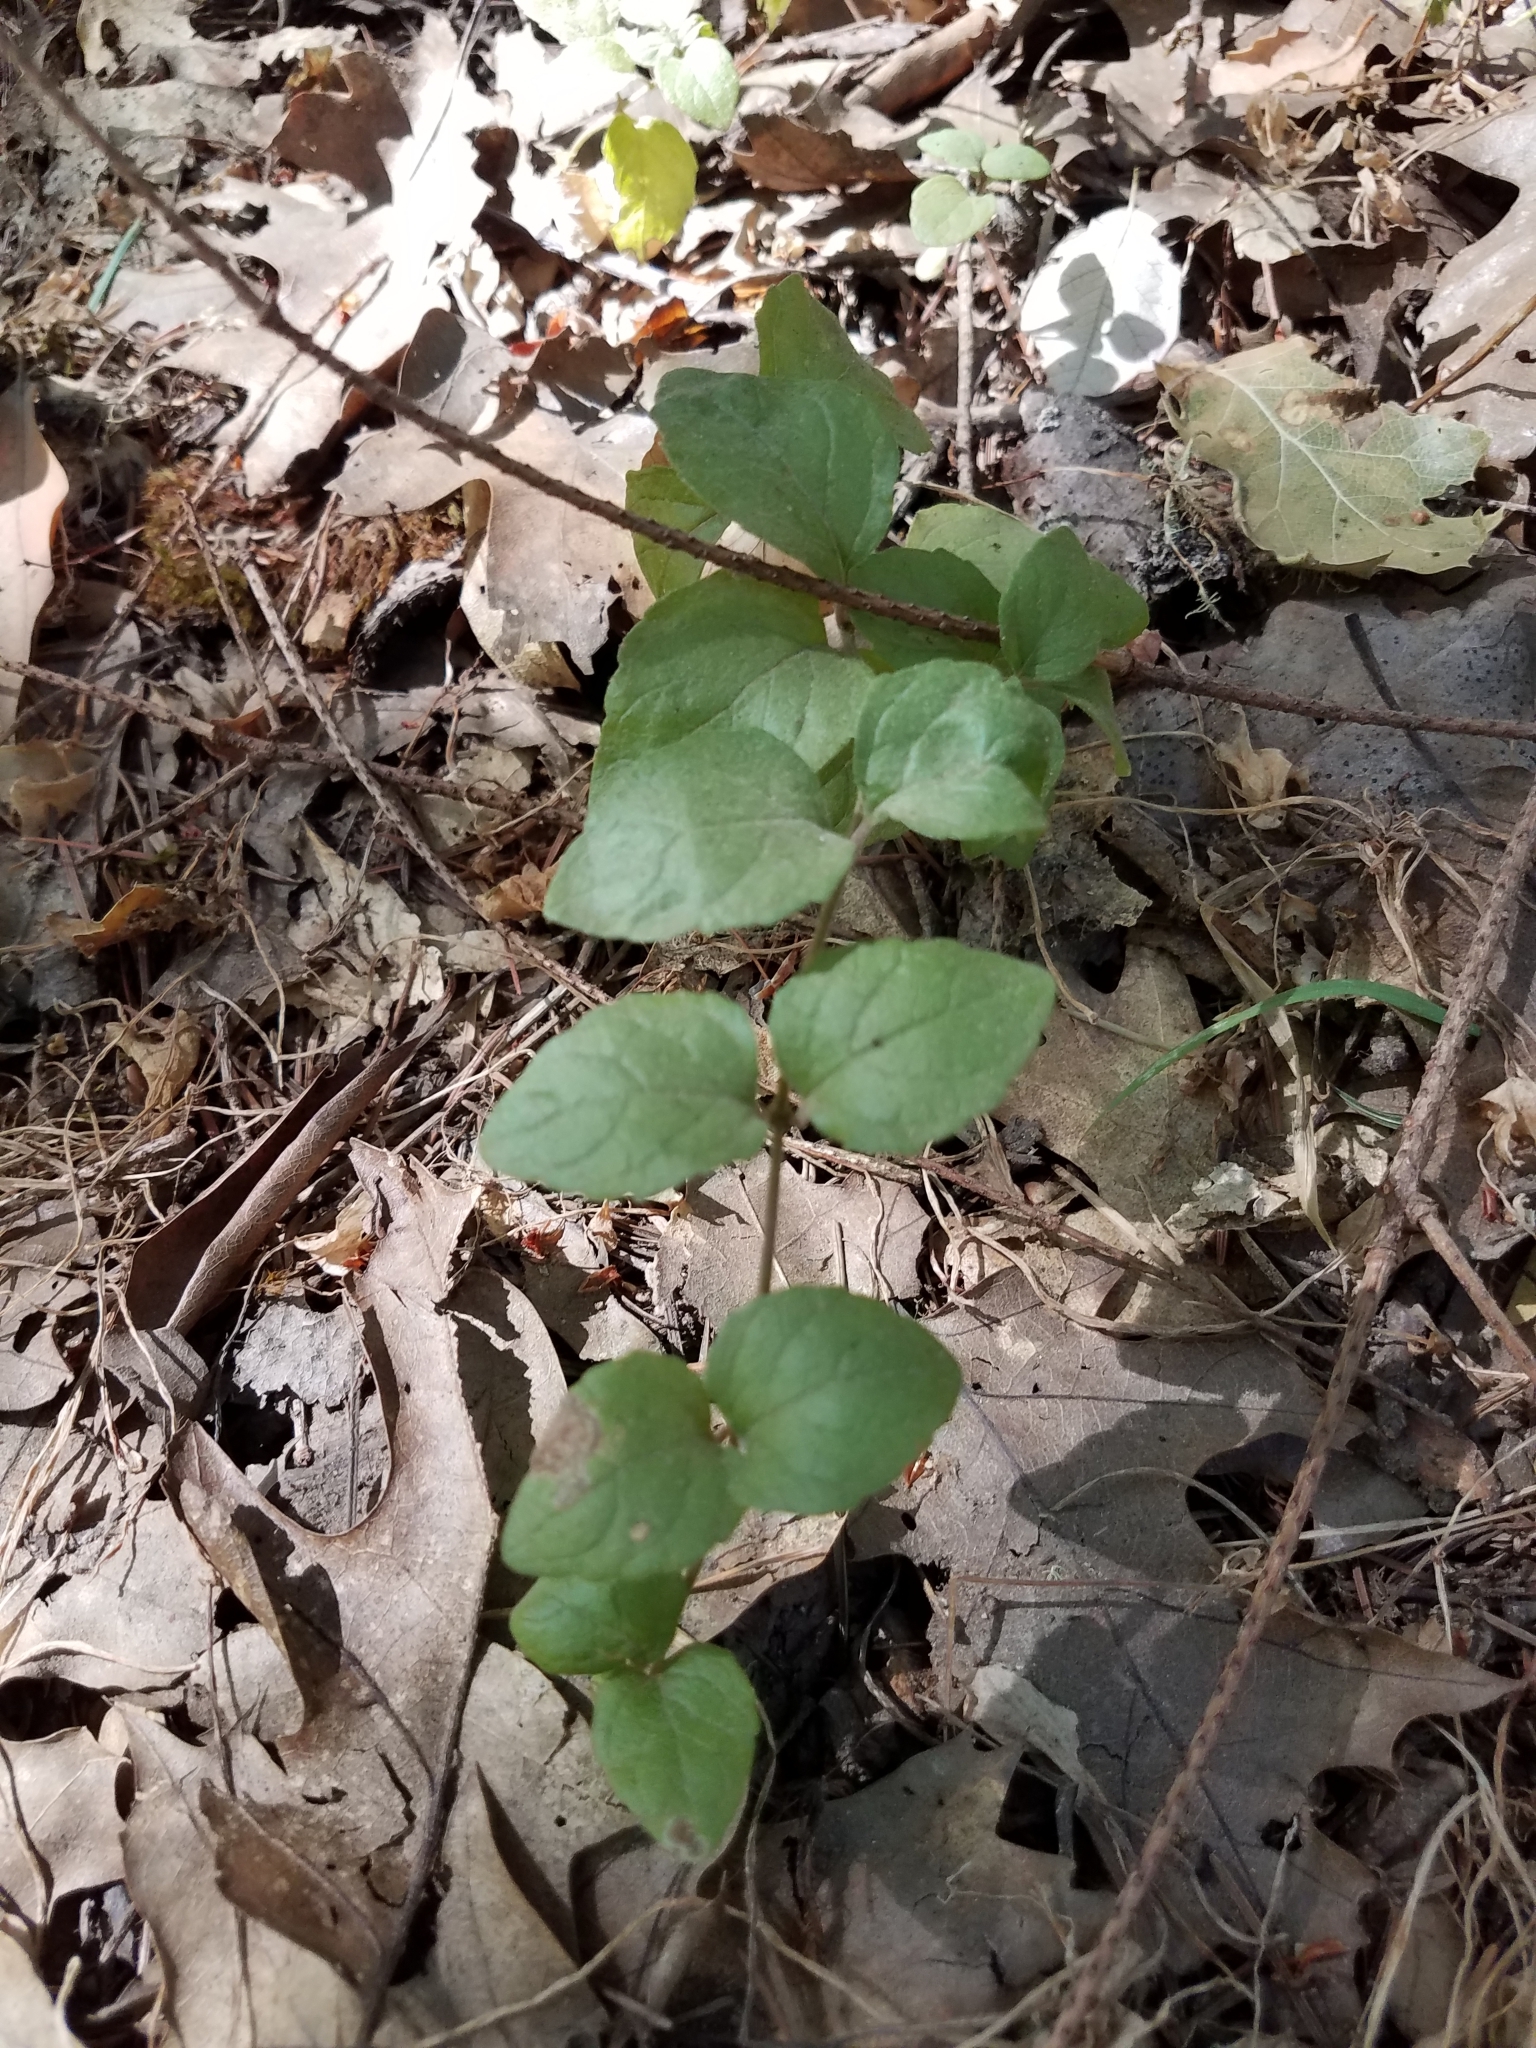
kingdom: Plantae
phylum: Tracheophyta
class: Magnoliopsida
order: Lamiales
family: Lamiaceae
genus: Micromeria
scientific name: Micromeria douglasii
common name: Yerba buena
